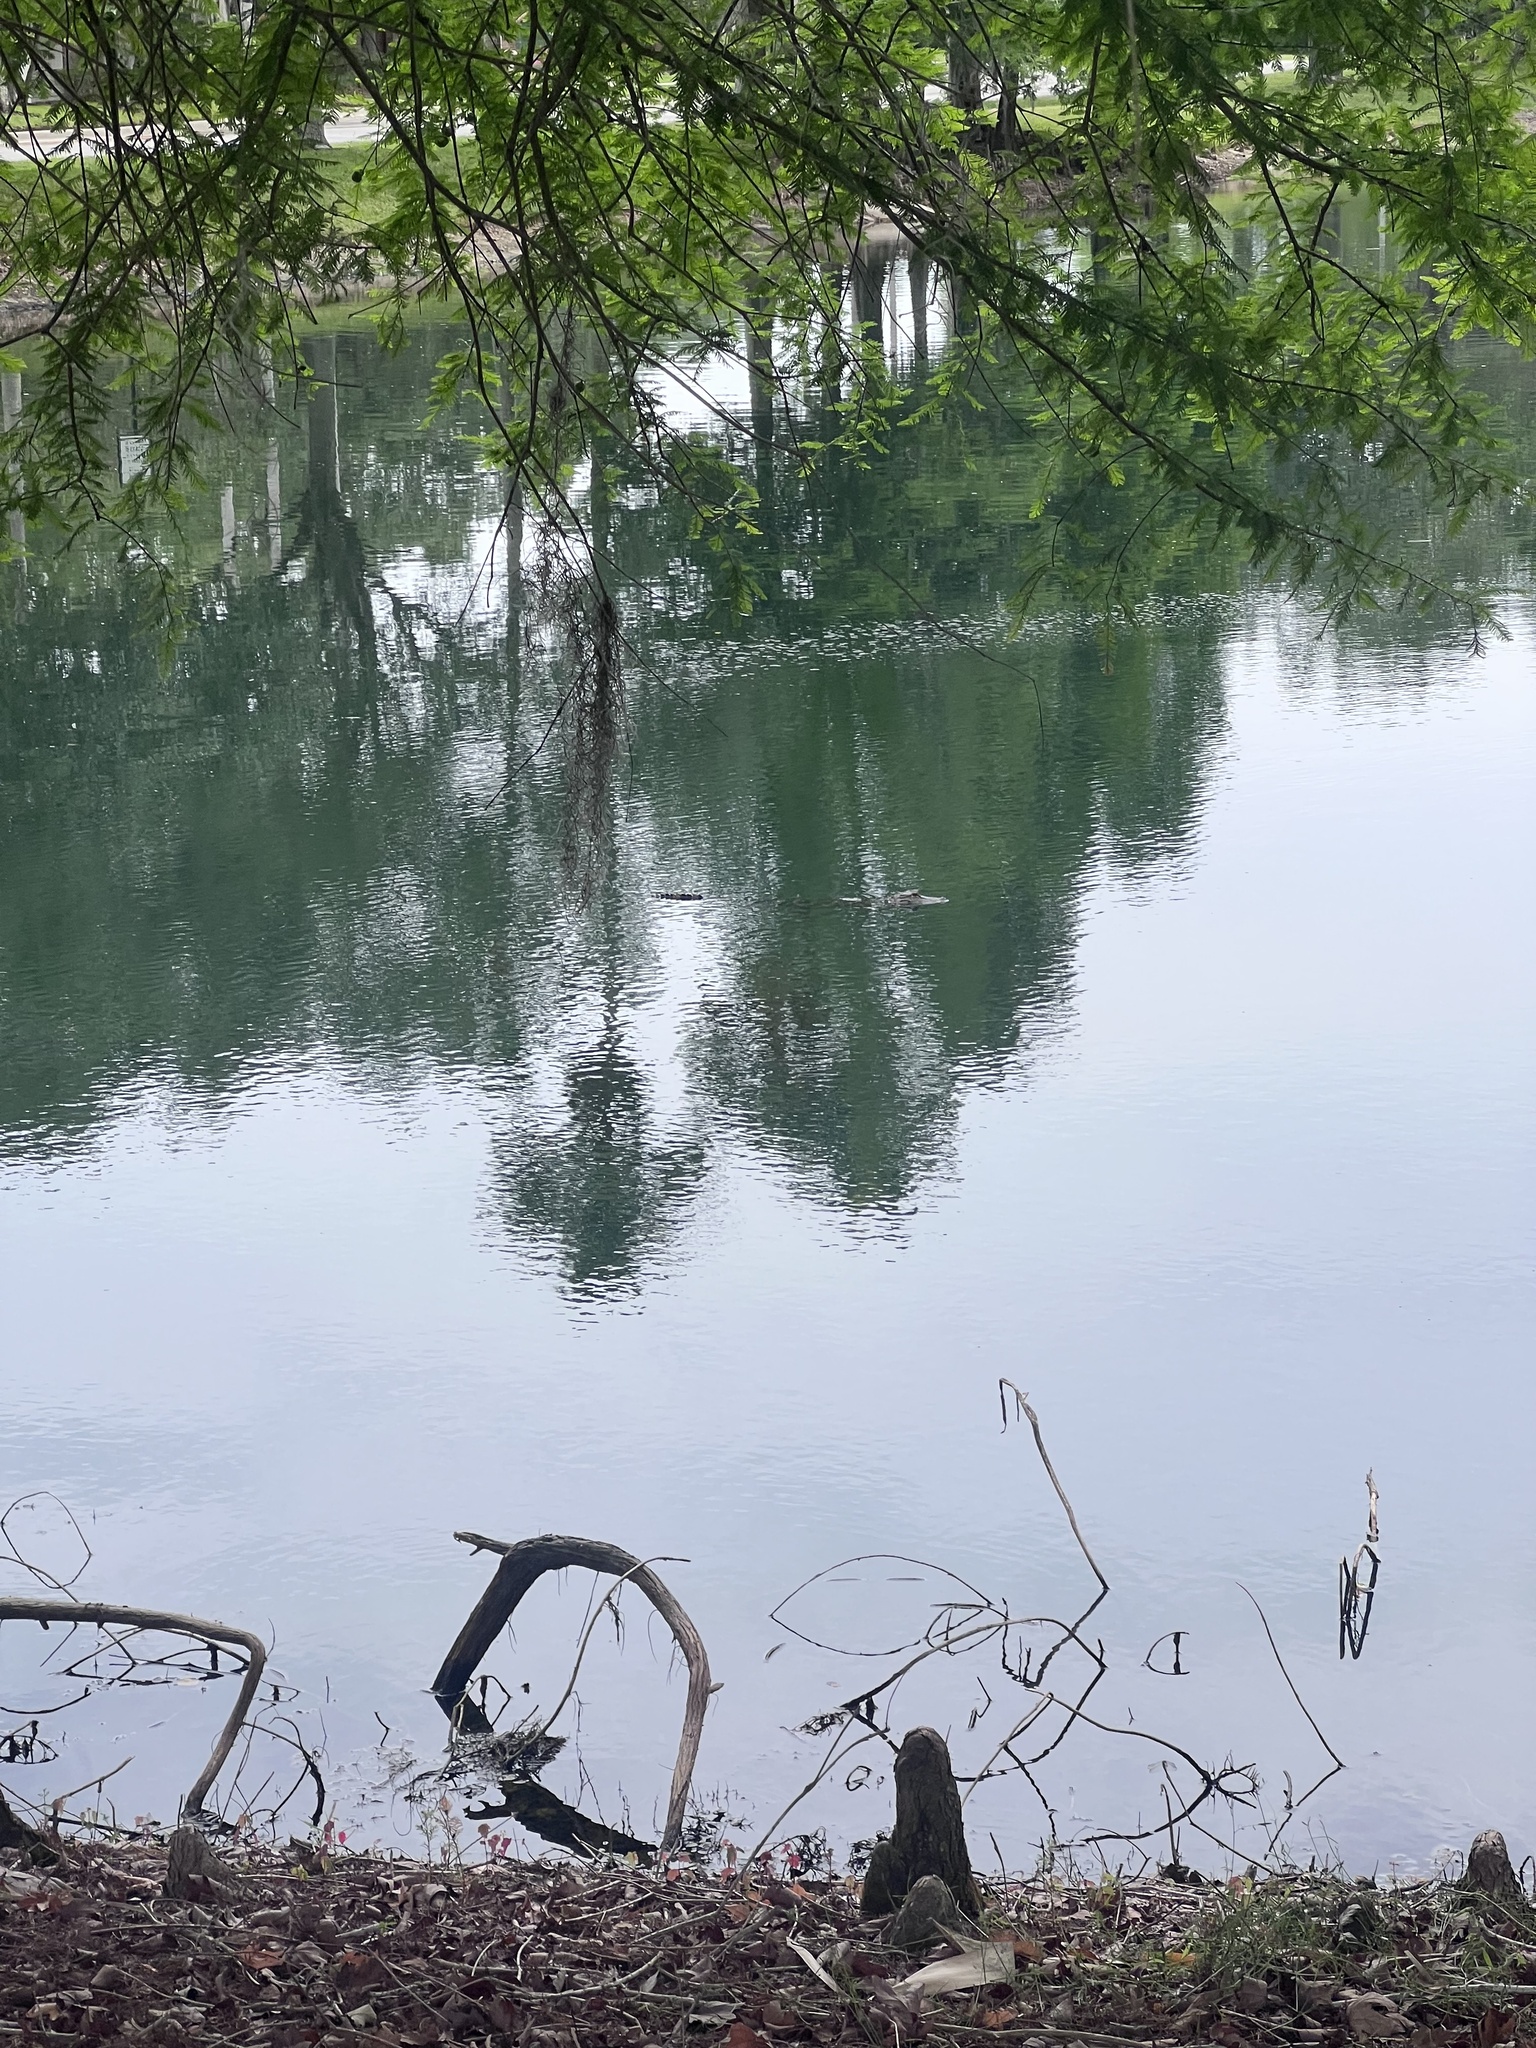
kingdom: Animalia
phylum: Chordata
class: Crocodylia
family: Alligatoridae
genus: Alligator
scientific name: Alligator mississippiensis
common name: American alligator
